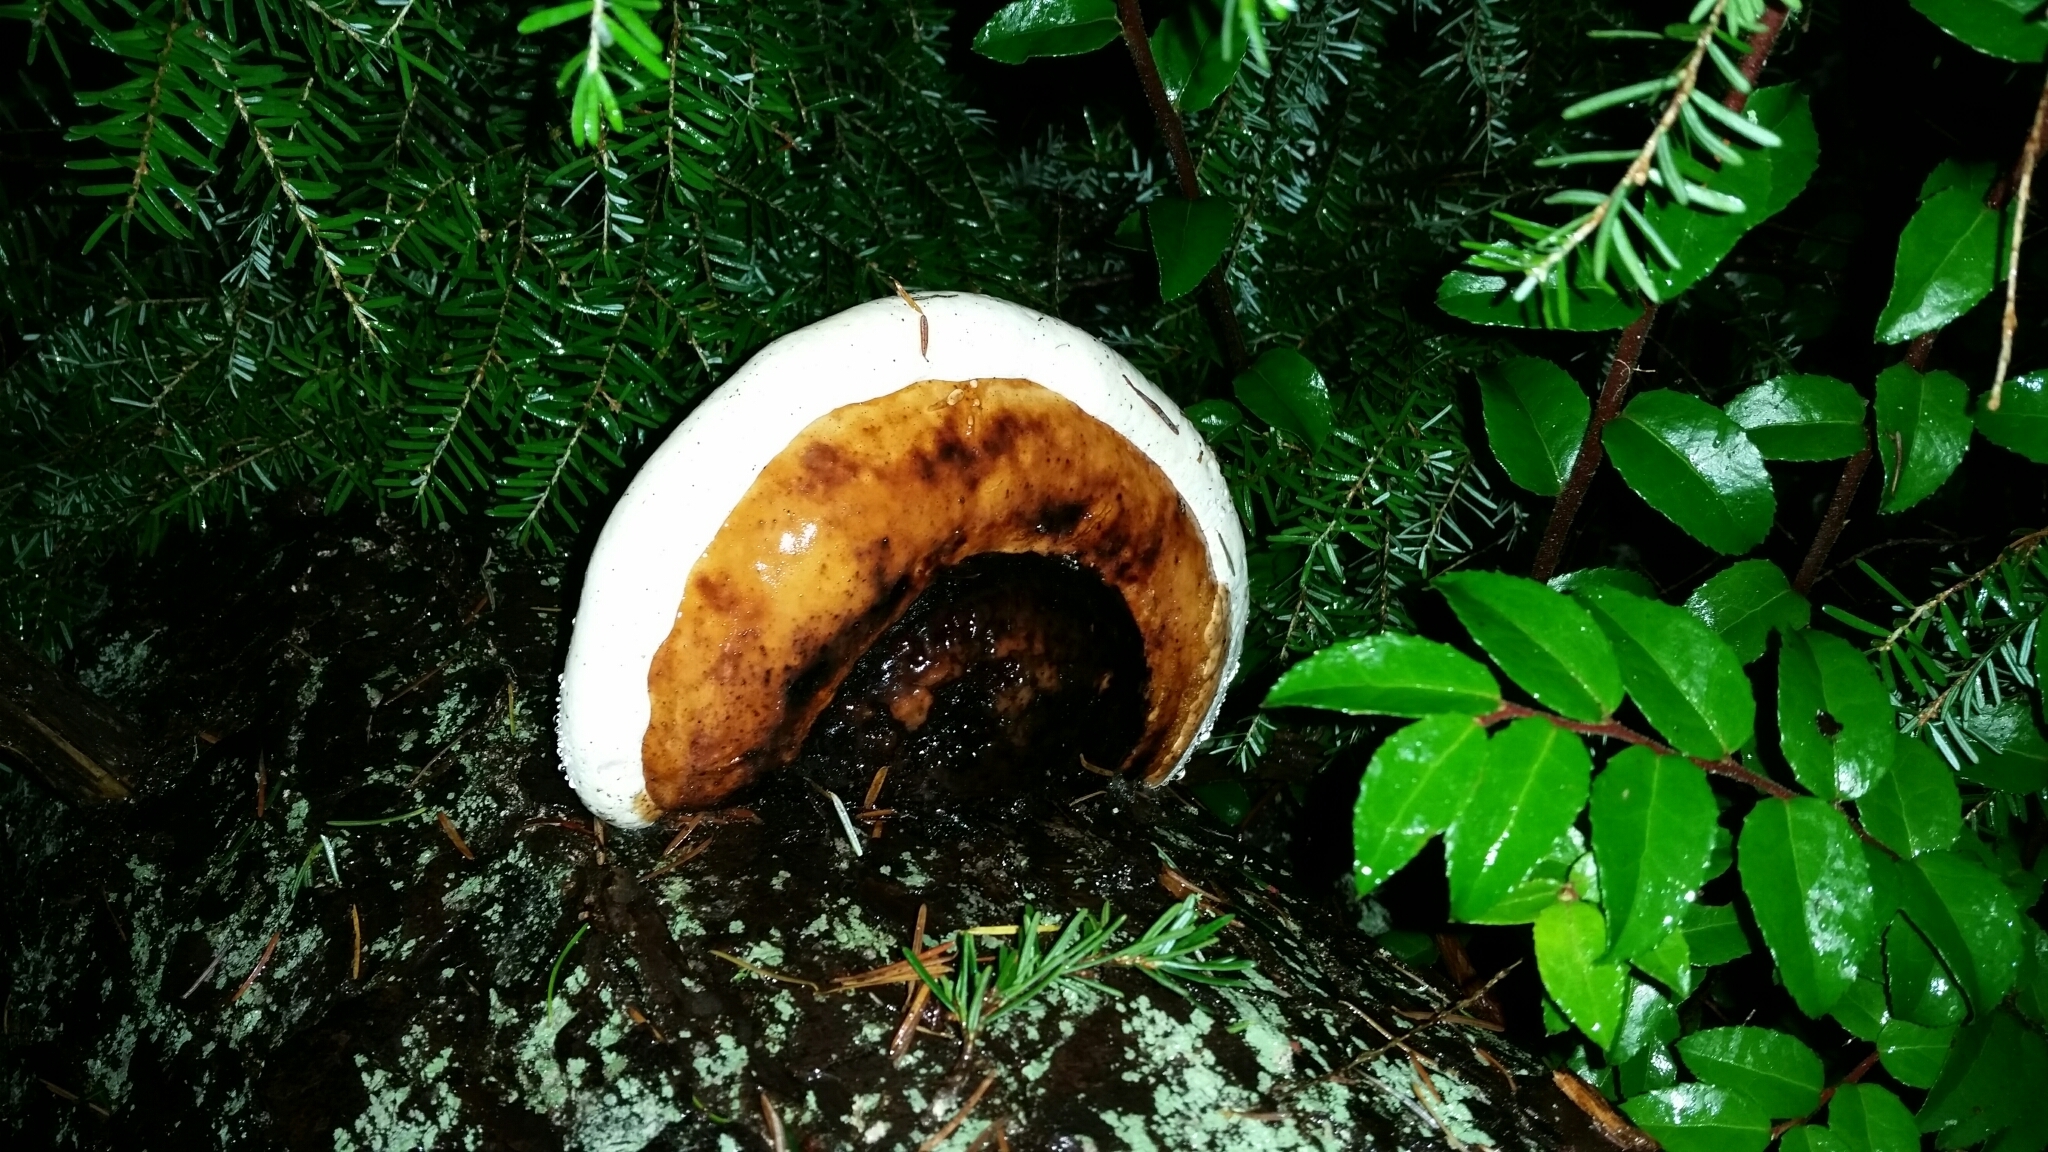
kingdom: Fungi
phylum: Basidiomycota
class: Agaricomycetes
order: Polyporales
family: Fomitopsidaceae
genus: Fomitopsis
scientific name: Fomitopsis mounceae
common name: Northern red belt
